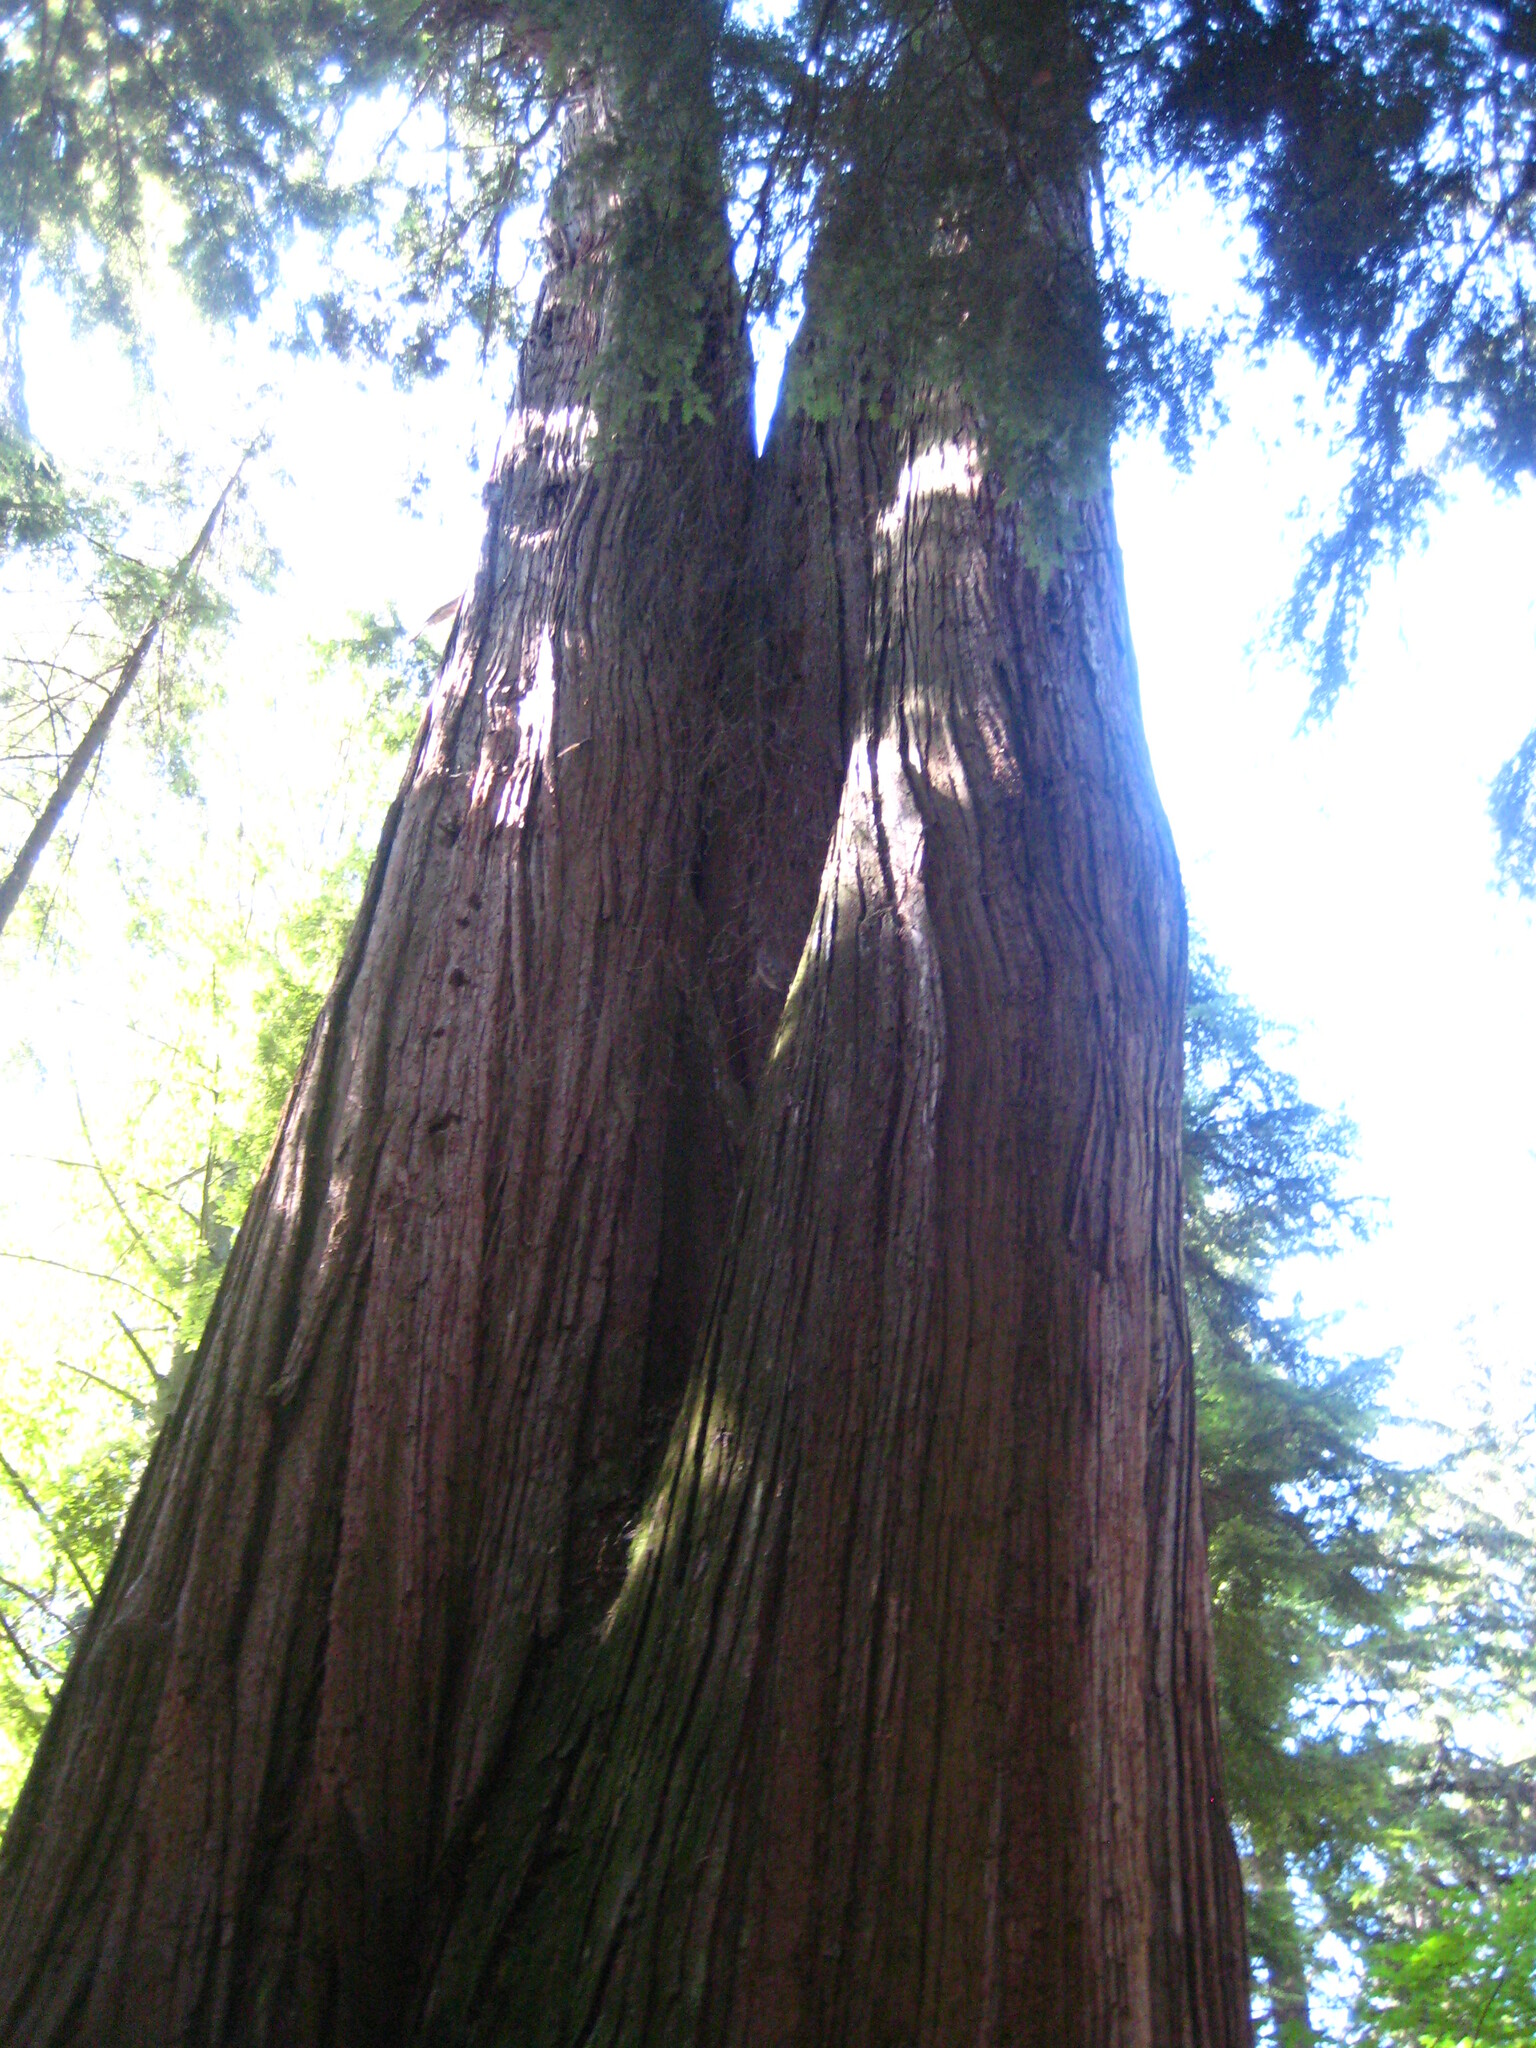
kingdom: Plantae
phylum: Tracheophyta
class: Pinopsida
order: Pinales
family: Cupressaceae
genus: Thuja
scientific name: Thuja plicata
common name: Western red-cedar
